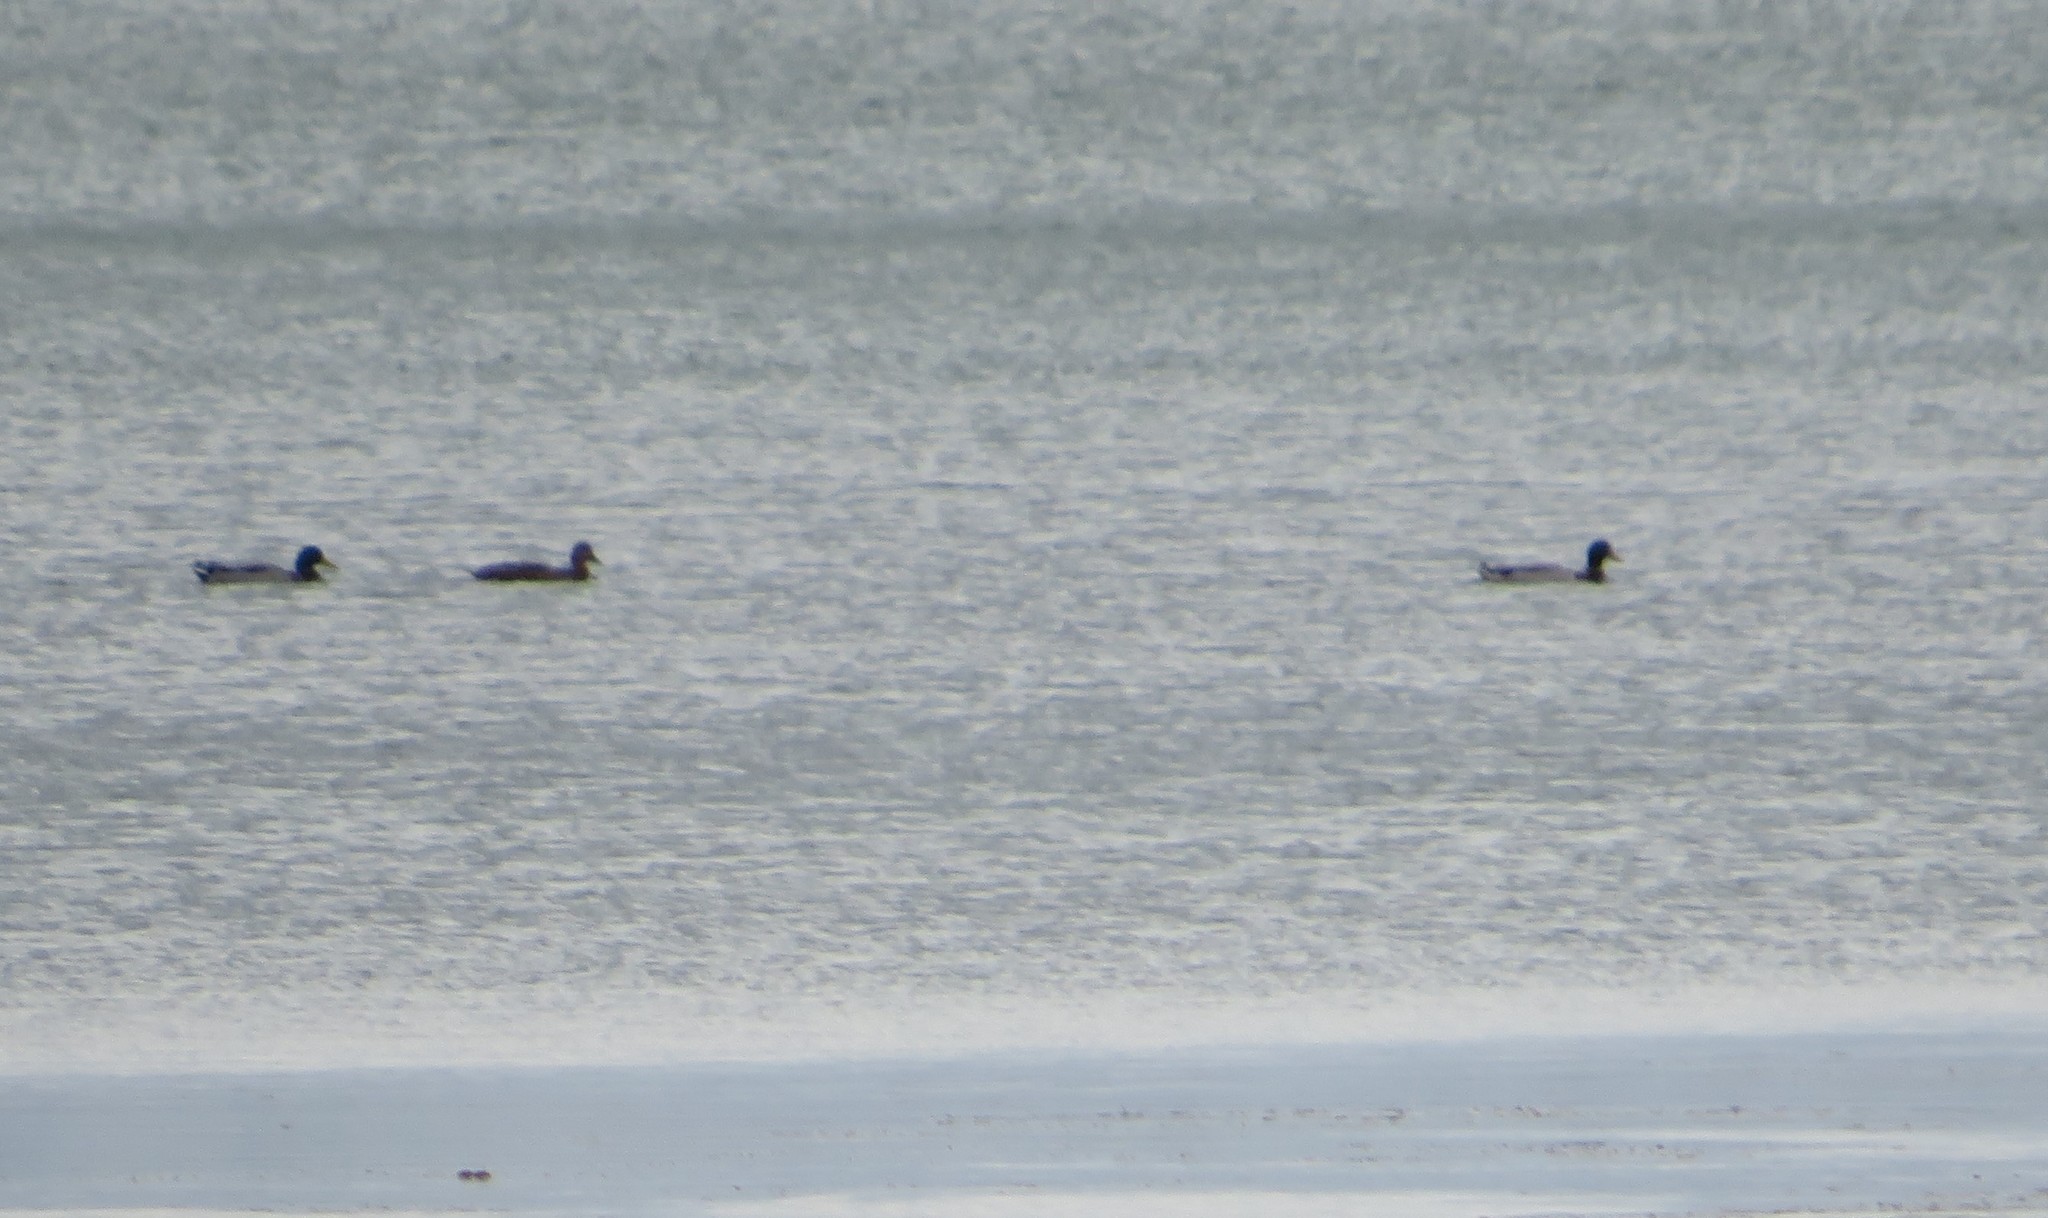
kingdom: Animalia
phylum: Chordata
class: Aves
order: Anseriformes
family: Anatidae
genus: Anas
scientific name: Anas platyrhynchos
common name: Mallard
